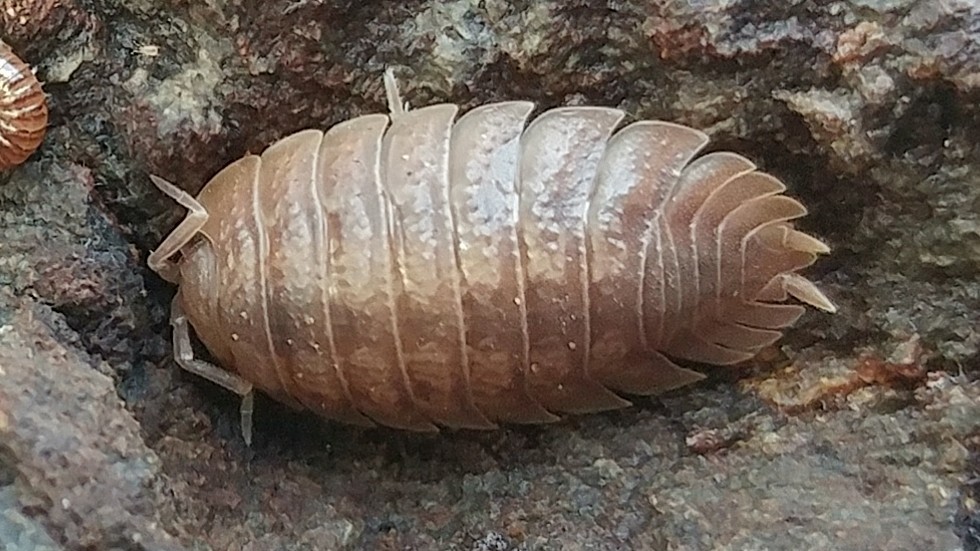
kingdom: Animalia
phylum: Arthropoda
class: Malacostraca
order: Isopoda
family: Porcellionidae
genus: Porcellio
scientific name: Porcellio dilatatus
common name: Isopod
